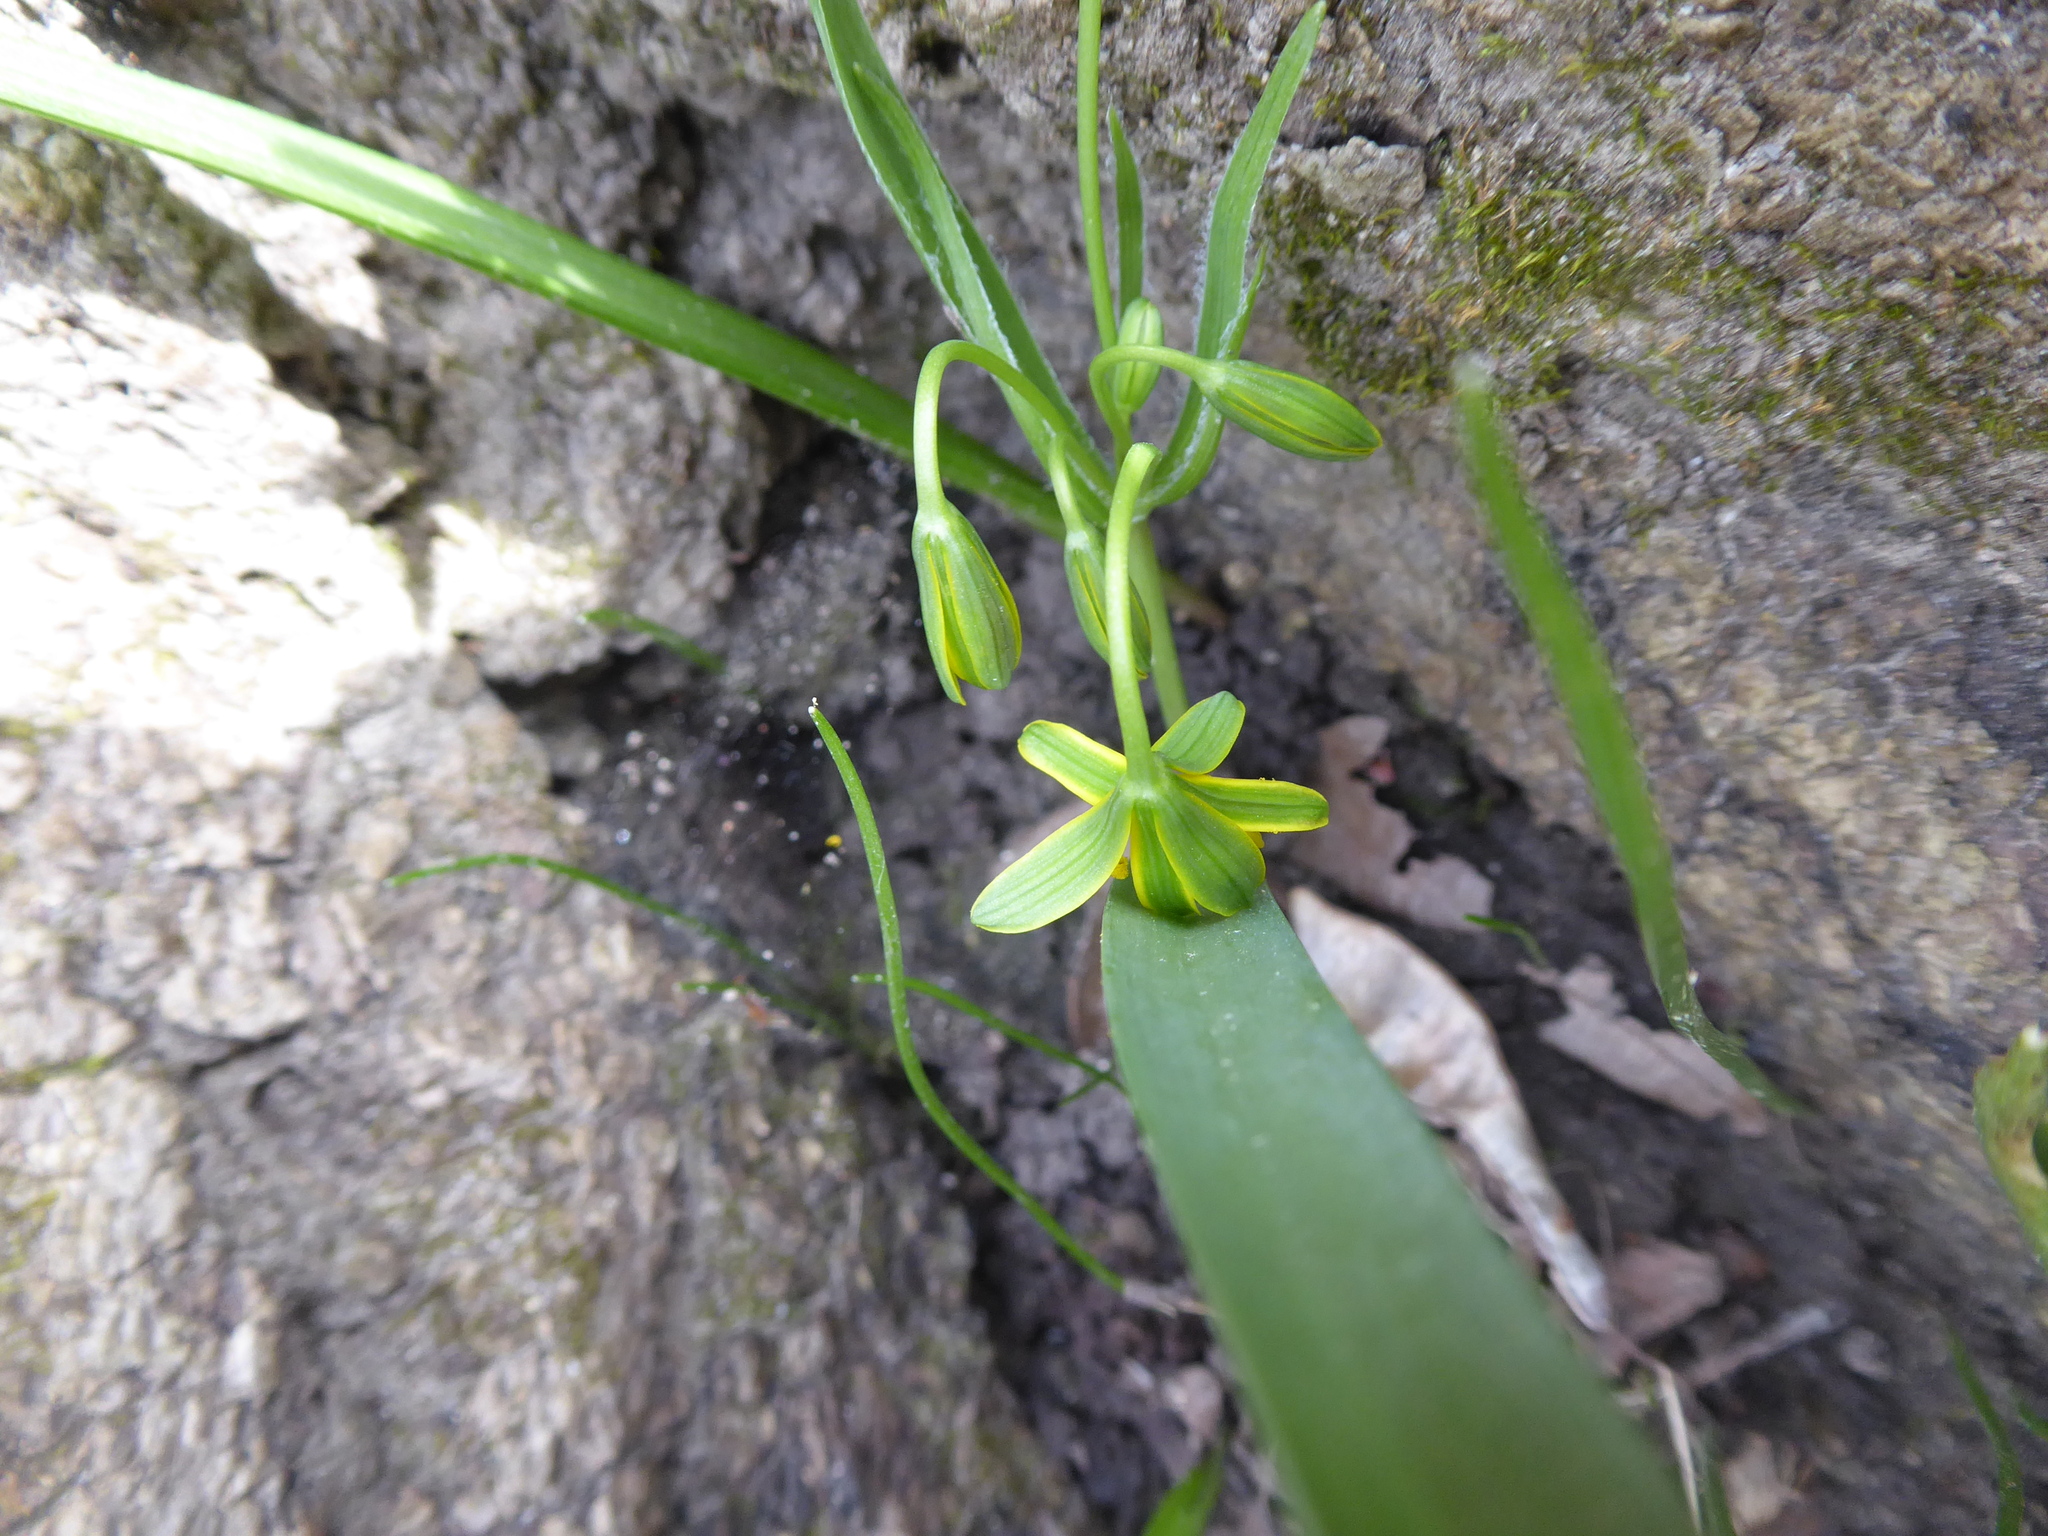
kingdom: Plantae
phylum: Tracheophyta
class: Liliopsida
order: Liliales
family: Liliaceae
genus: Gagea
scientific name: Gagea lutea
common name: Yellow star-of-bethlehem
